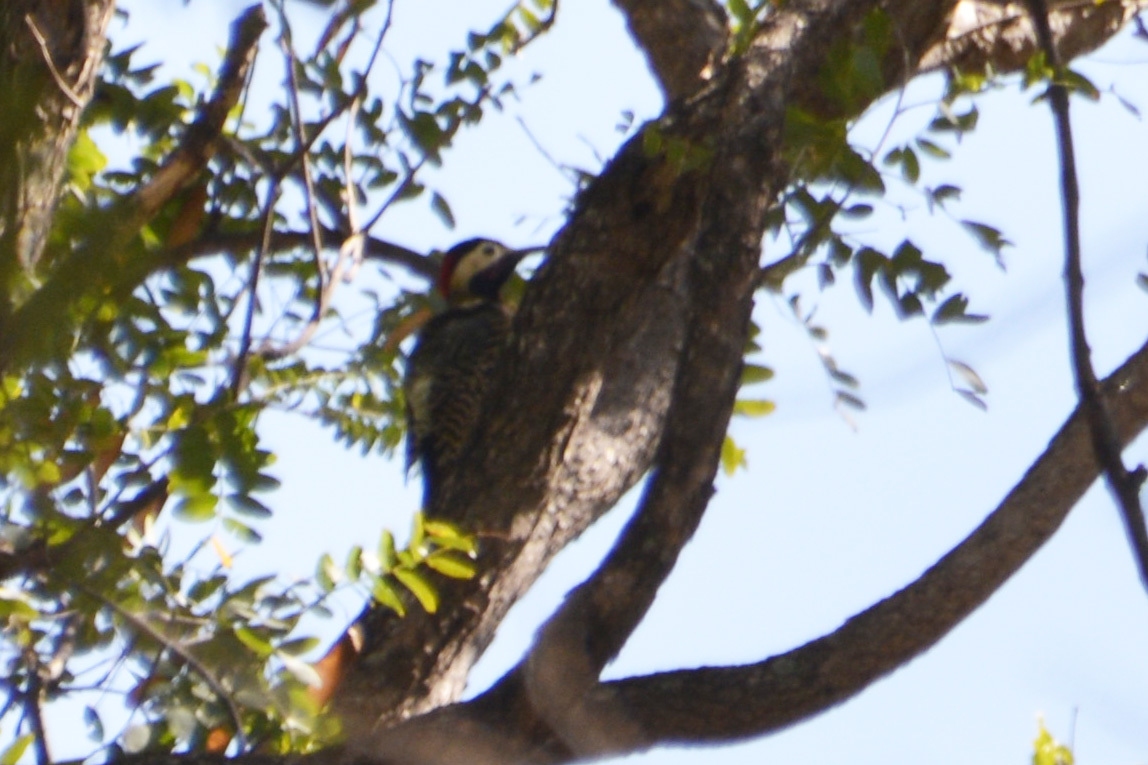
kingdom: Animalia
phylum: Chordata
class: Aves
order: Piciformes
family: Picidae
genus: Colaptes
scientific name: Colaptes melanochloros
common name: Green-barred woodpecker
